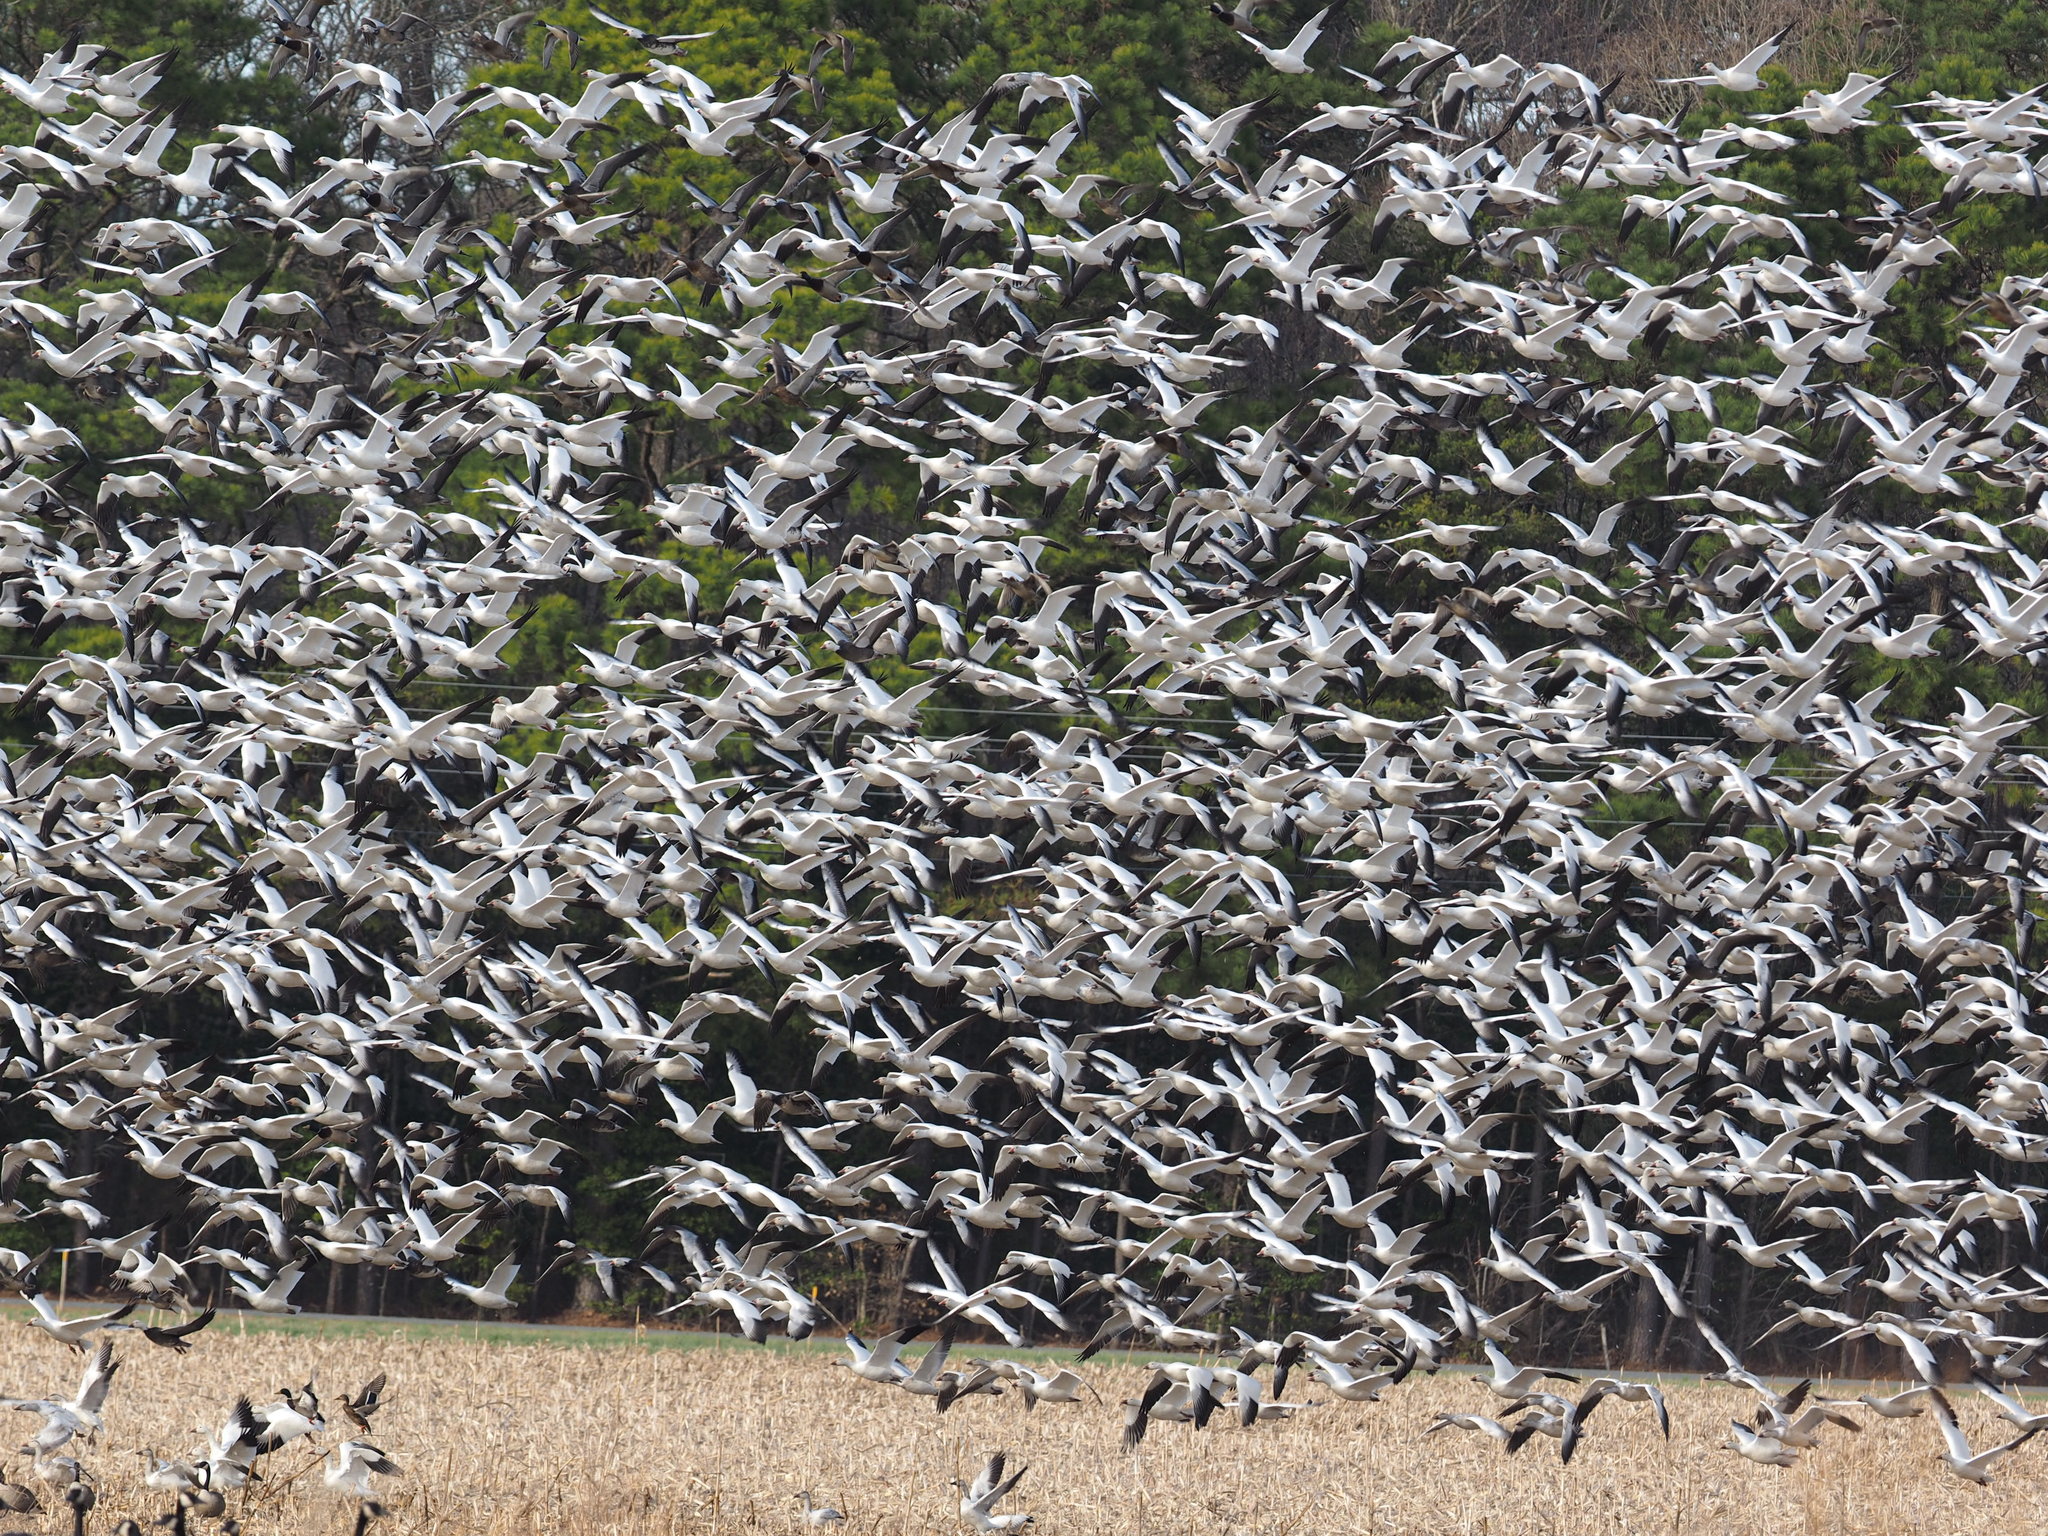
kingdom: Animalia
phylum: Chordata
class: Aves
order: Anseriformes
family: Anatidae
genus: Anser
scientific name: Anser caerulescens
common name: Snow goose
